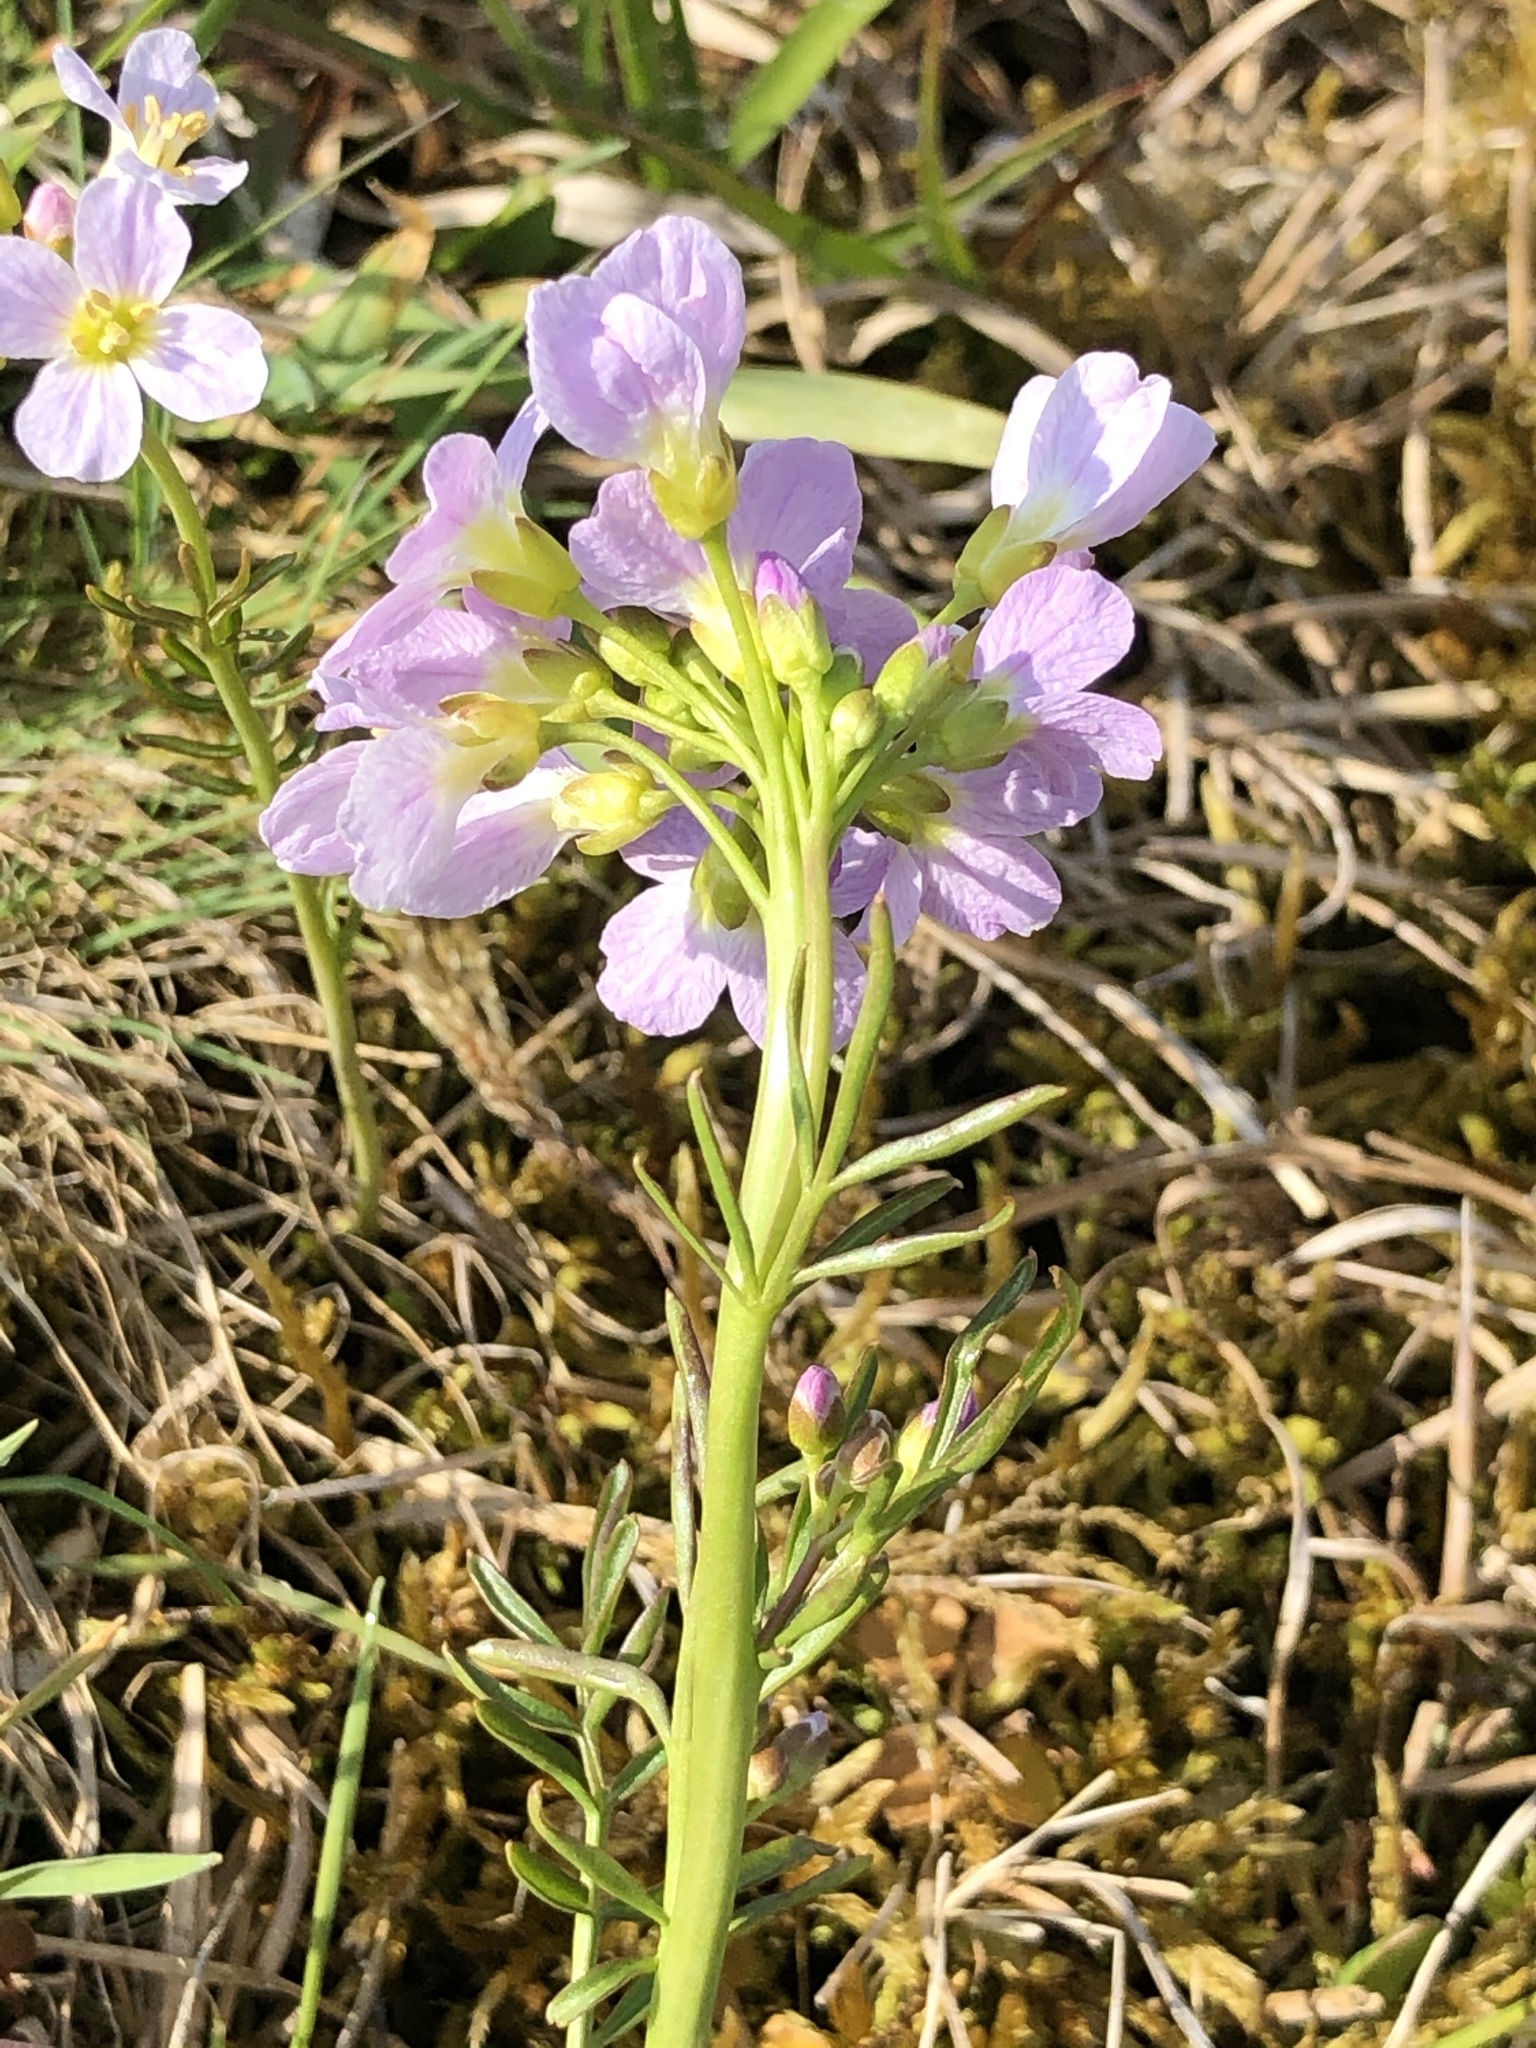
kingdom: Plantae
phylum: Tracheophyta
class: Magnoliopsida
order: Brassicales
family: Brassicaceae
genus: Cardamine
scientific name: Cardamine pratensis
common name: Cuckoo flower
